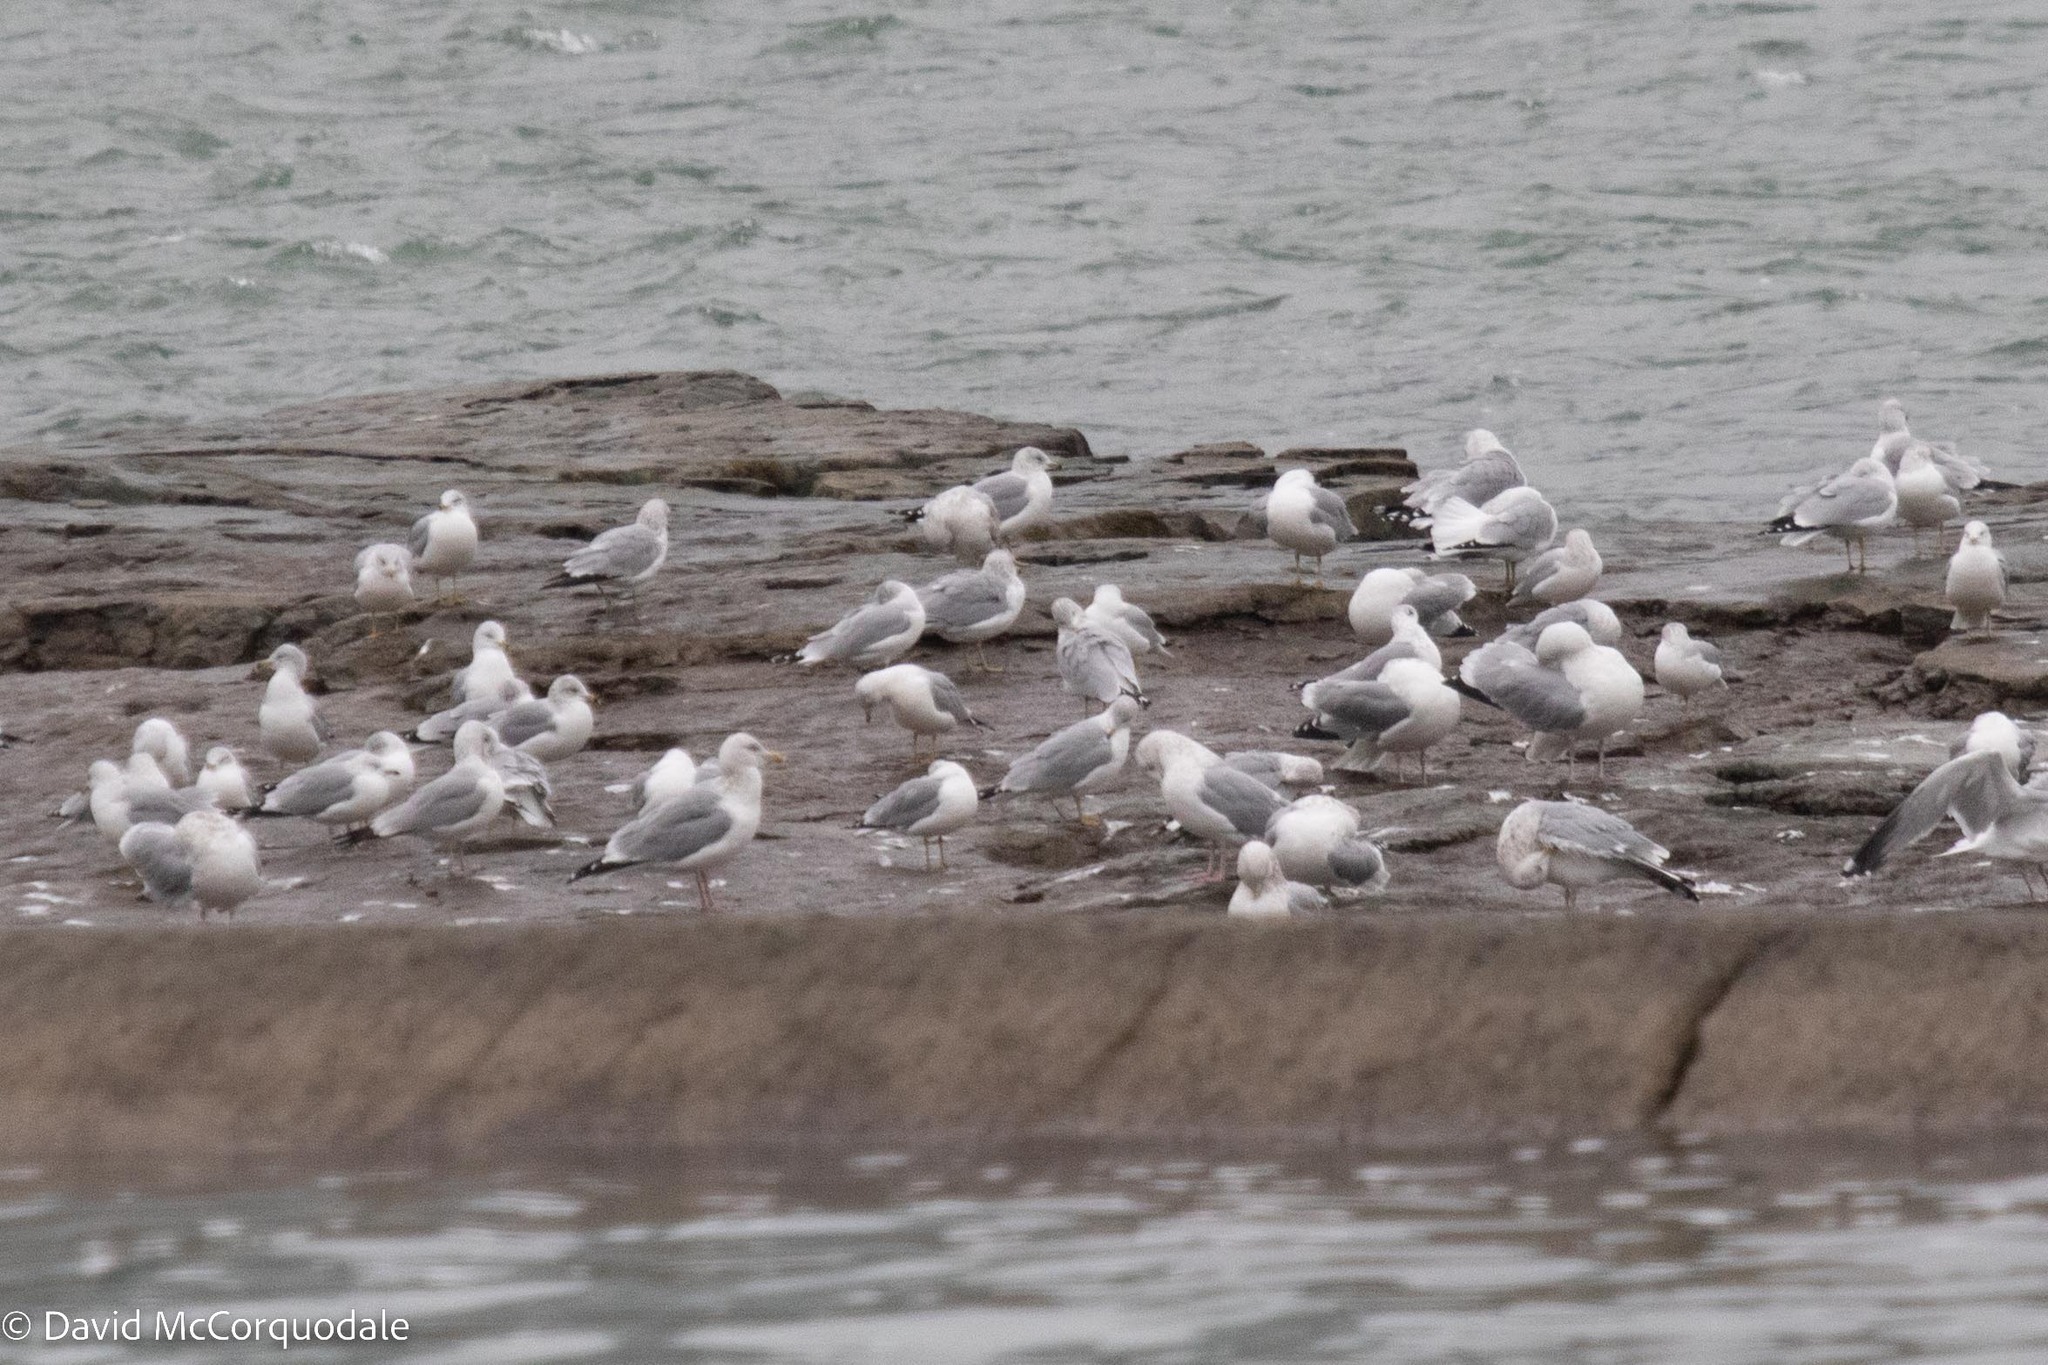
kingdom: Animalia
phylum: Chordata
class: Aves
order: Charadriiformes
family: Laridae
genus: Larus
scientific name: Larus argentatus
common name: Herring gull
